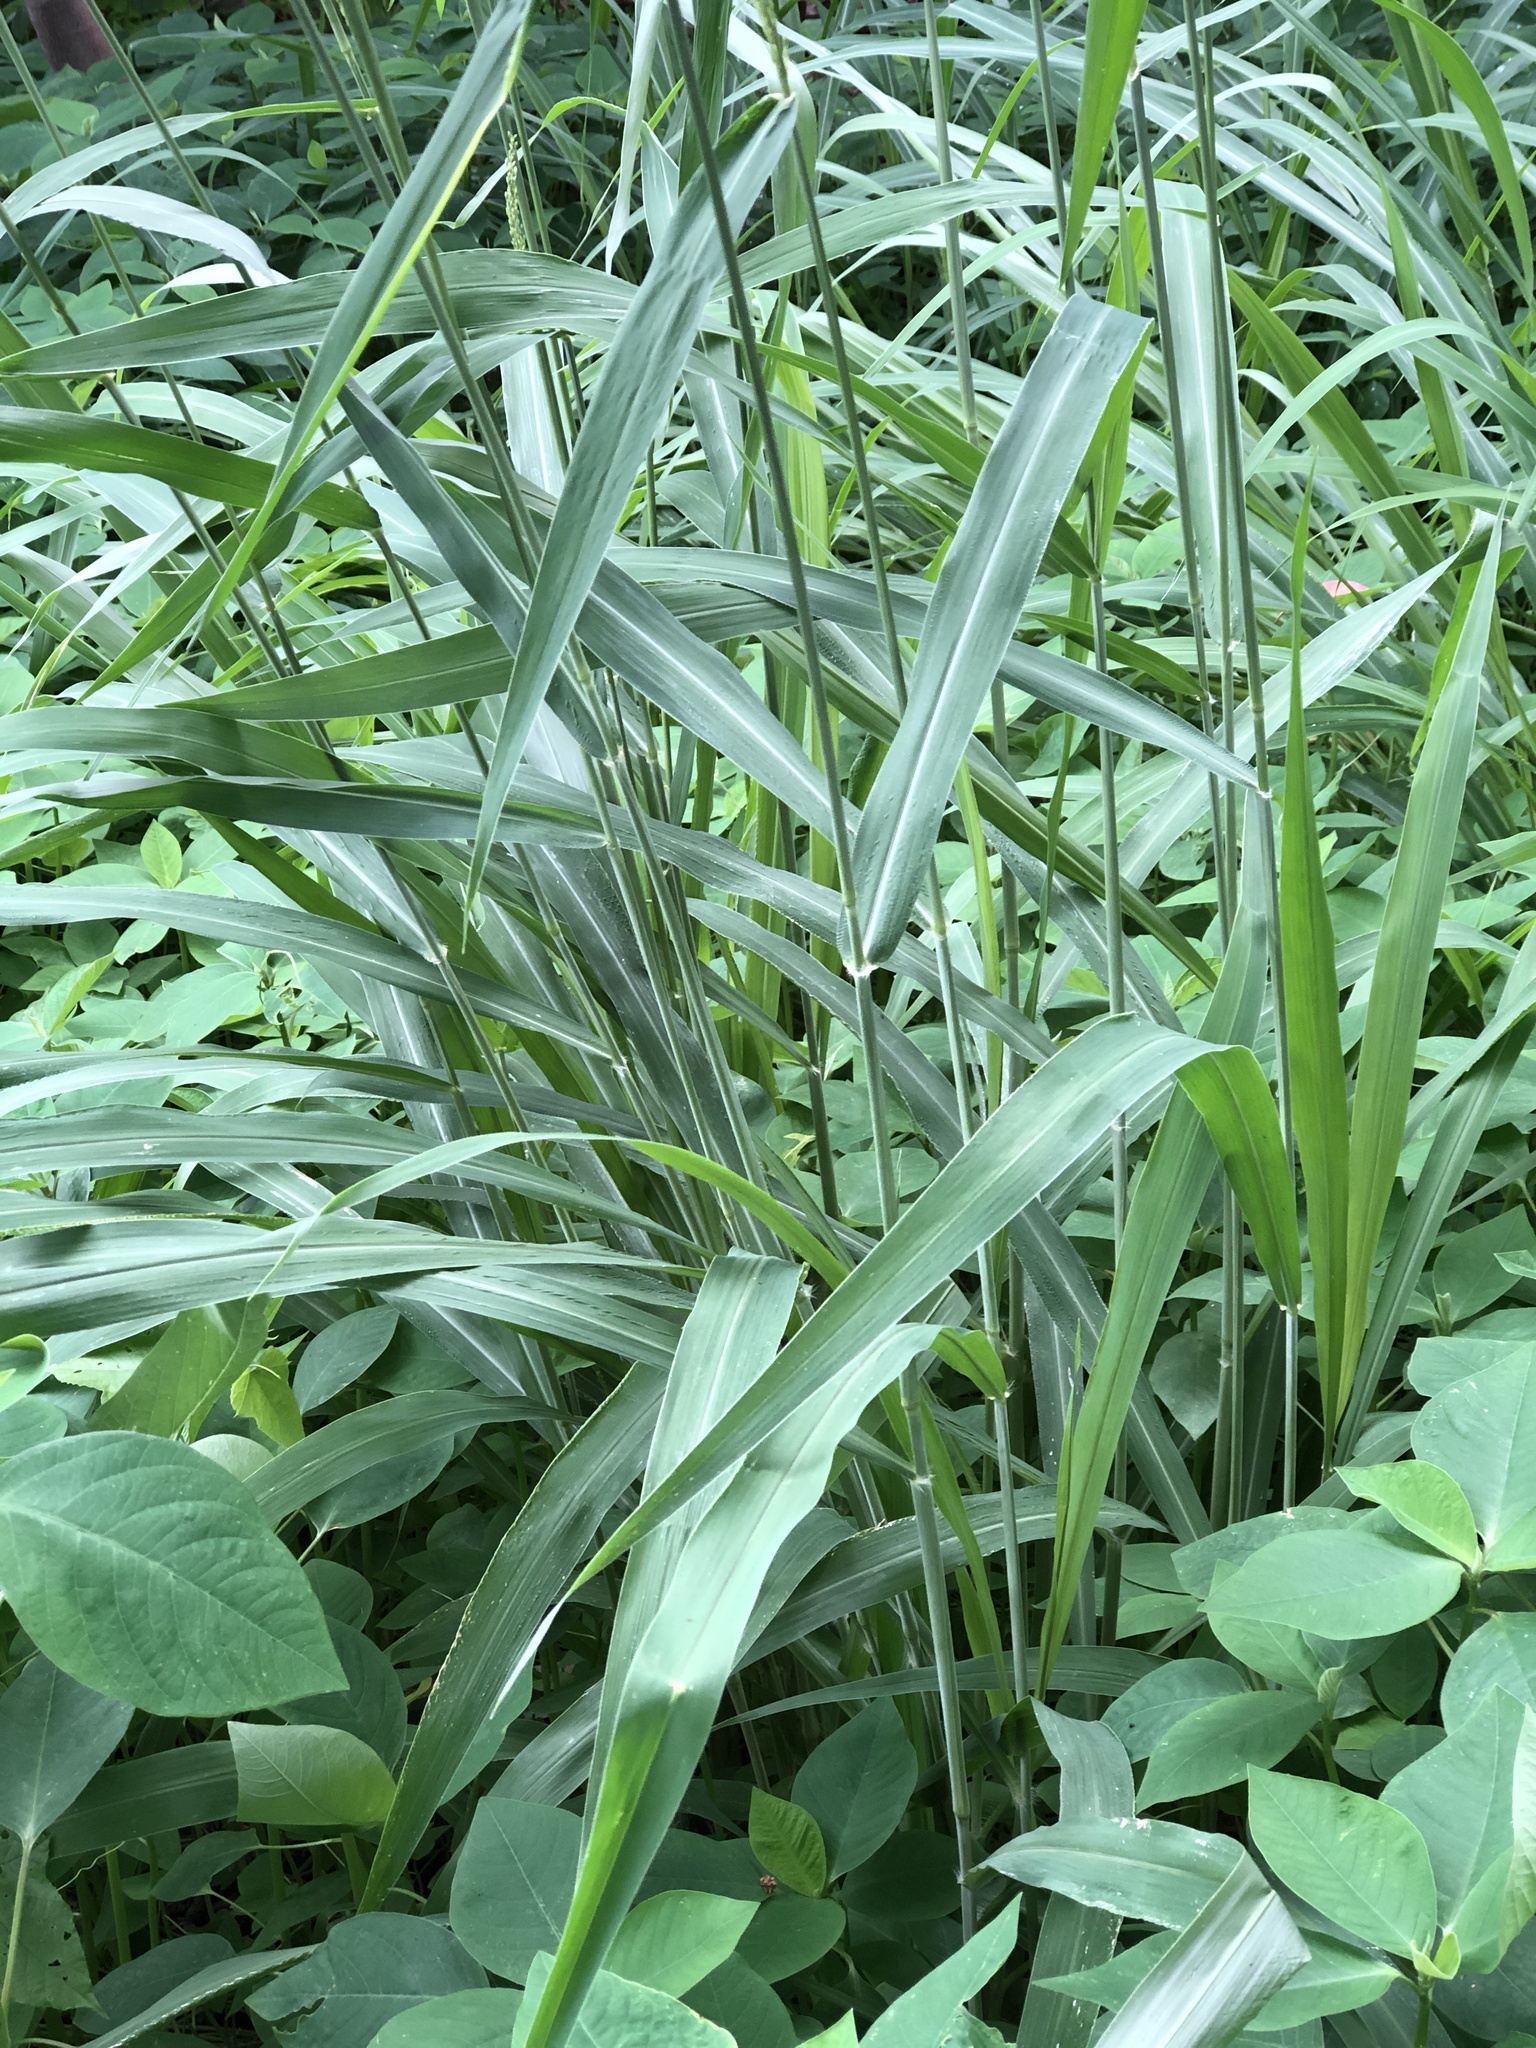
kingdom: Plantae
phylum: Tracheophyta
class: Liliopsida
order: Poales
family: Poaceae
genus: Megathyrsus
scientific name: Megathyrsus maximus
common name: Guineagrass
